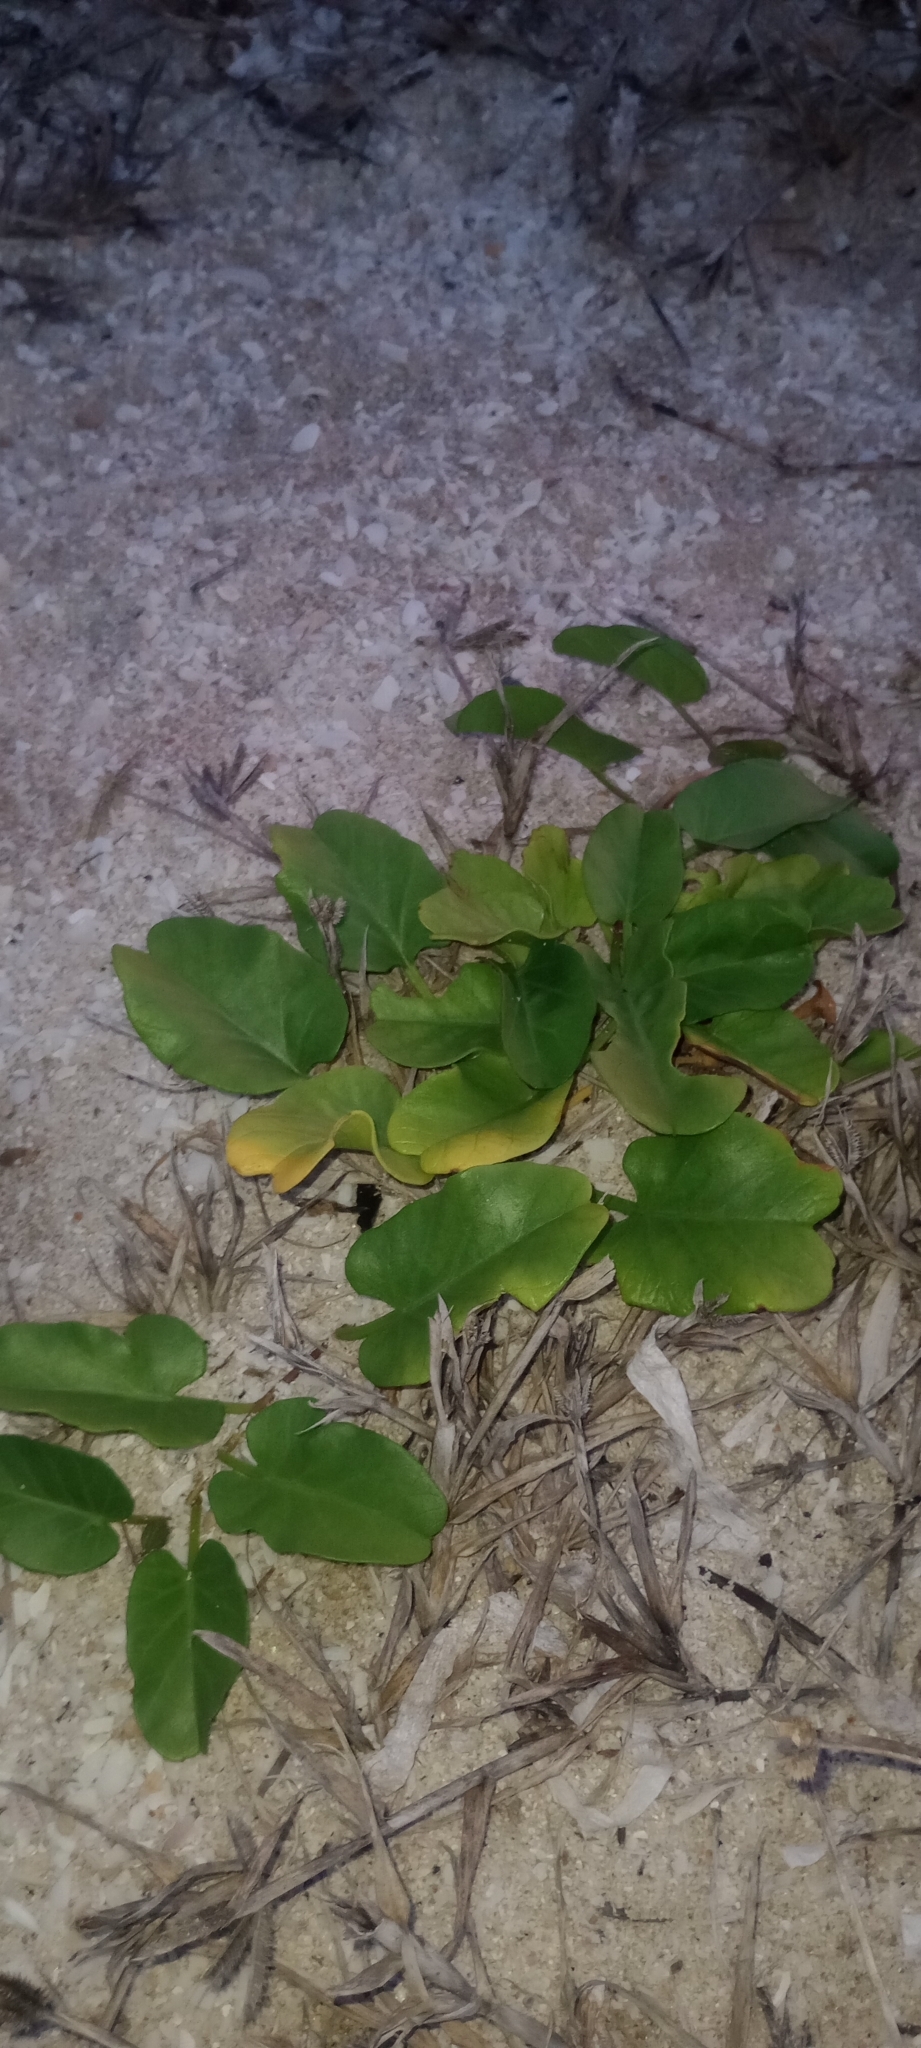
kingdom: Plantae
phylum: Tracheophyta
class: Magnoliopsida
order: Solanales
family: Convolvulaceae
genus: Ipomoea
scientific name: Ipomoea imperati
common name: Fiddle-leaf morning-glory
